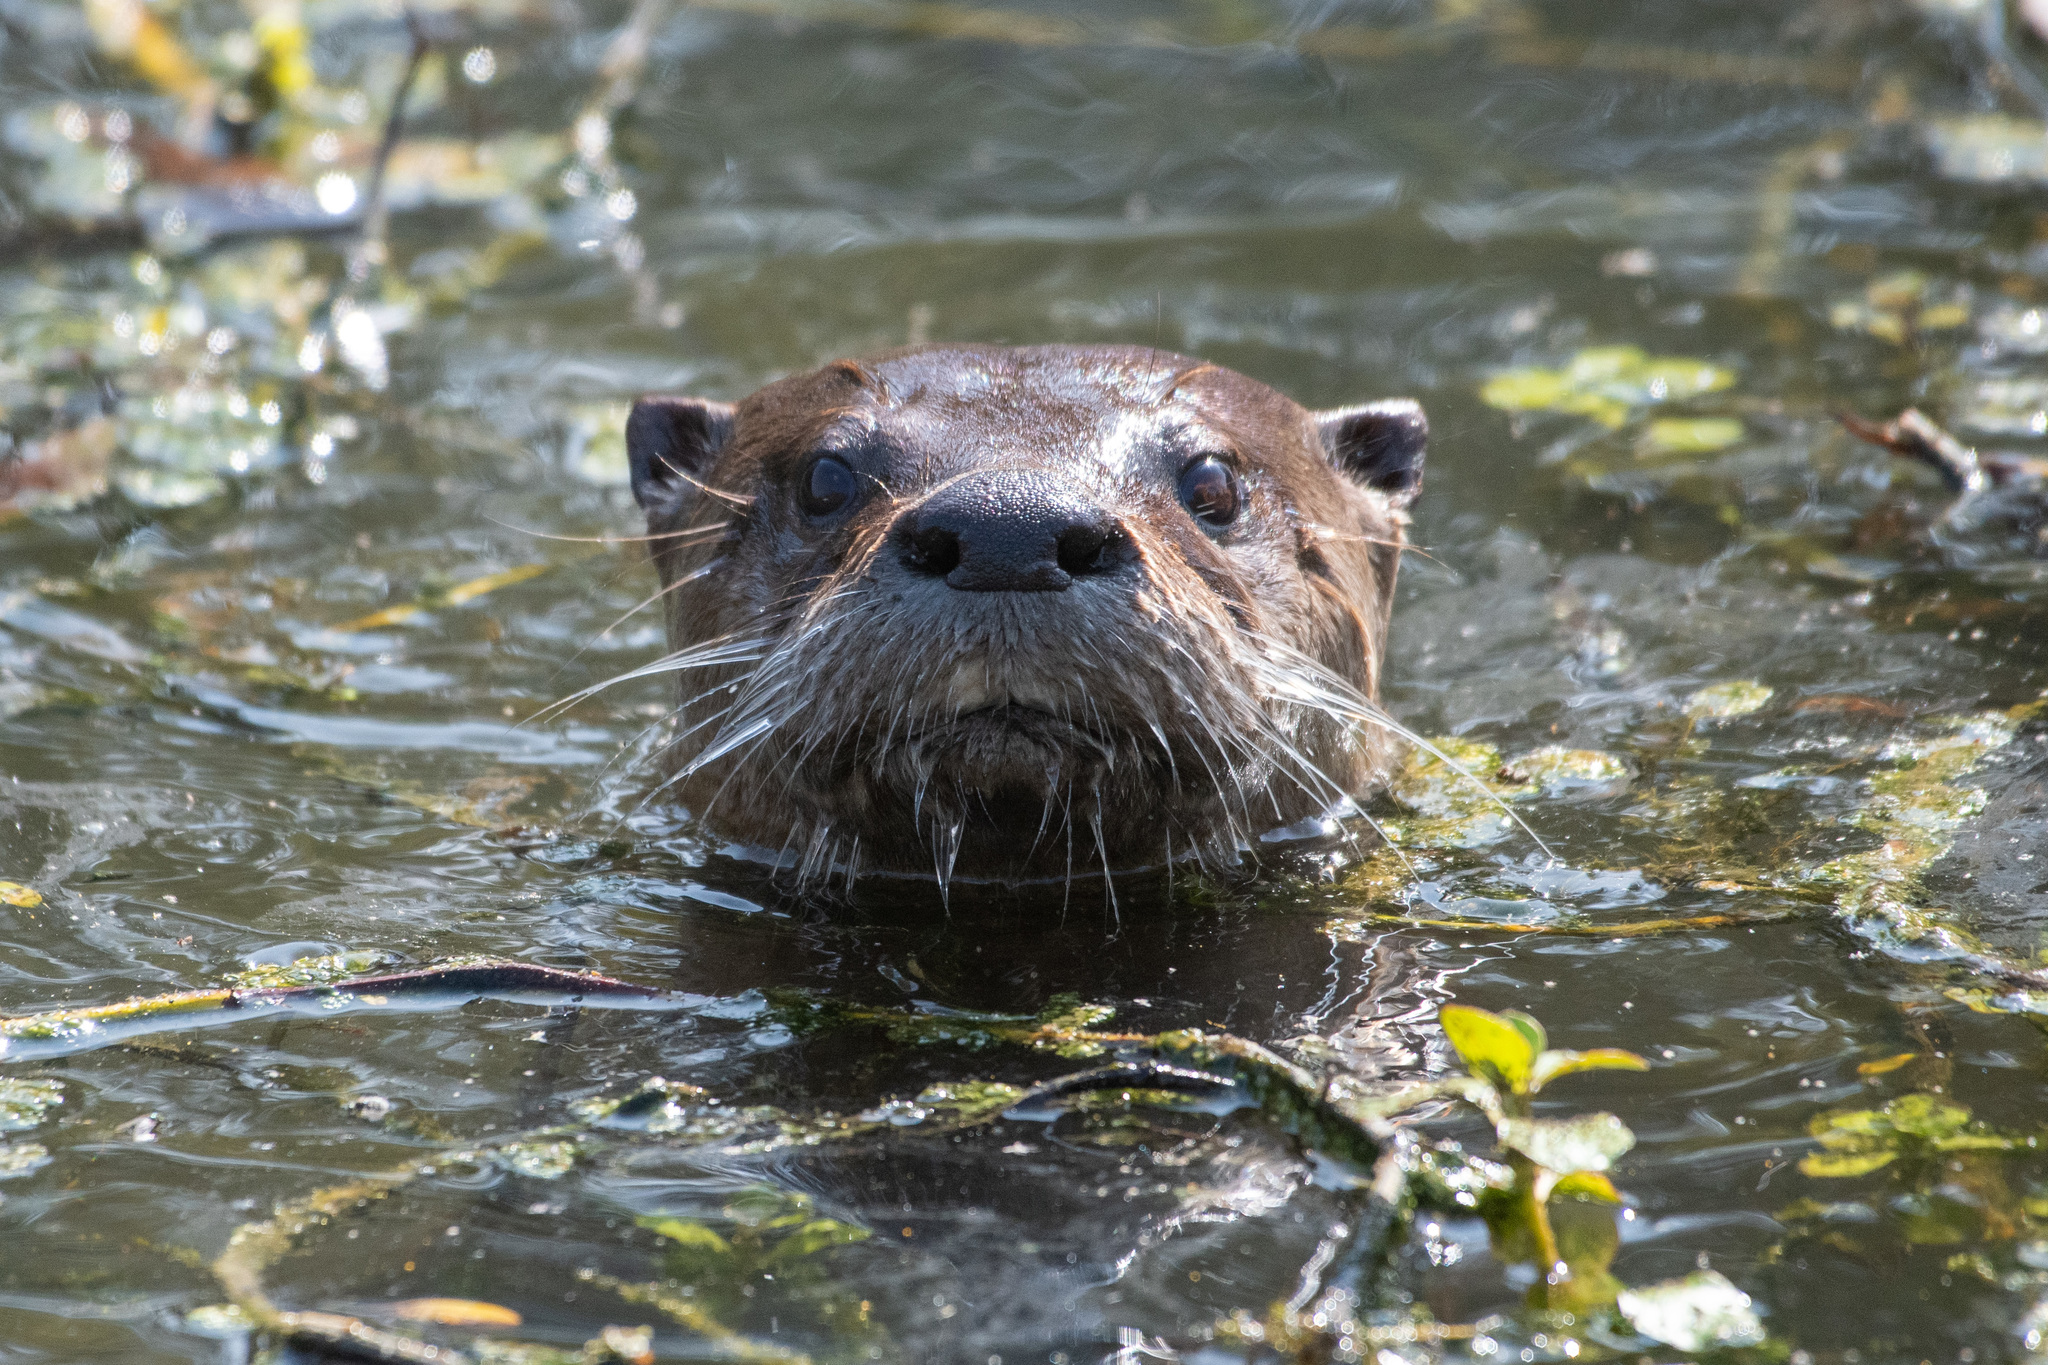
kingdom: Animalia
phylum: Chordata
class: Mammalia
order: Carnivora
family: Mustelidae
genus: Lontra
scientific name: Lontra canadensis
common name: North american river otter
